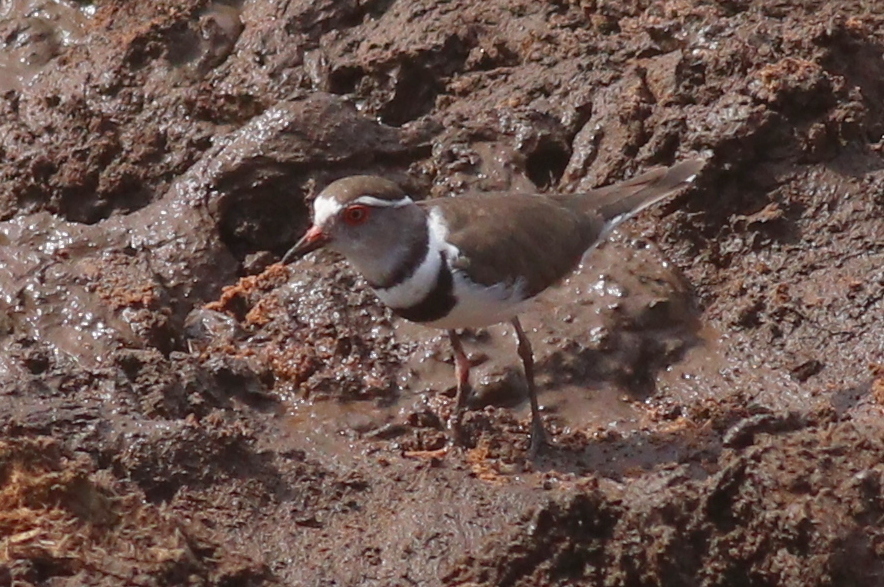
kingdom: Animalia
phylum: Chordata
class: Aves
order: Charadriiformes
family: Charadriidae
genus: Charadrius
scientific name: Charadrius tricollaris
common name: Three-banded plover
